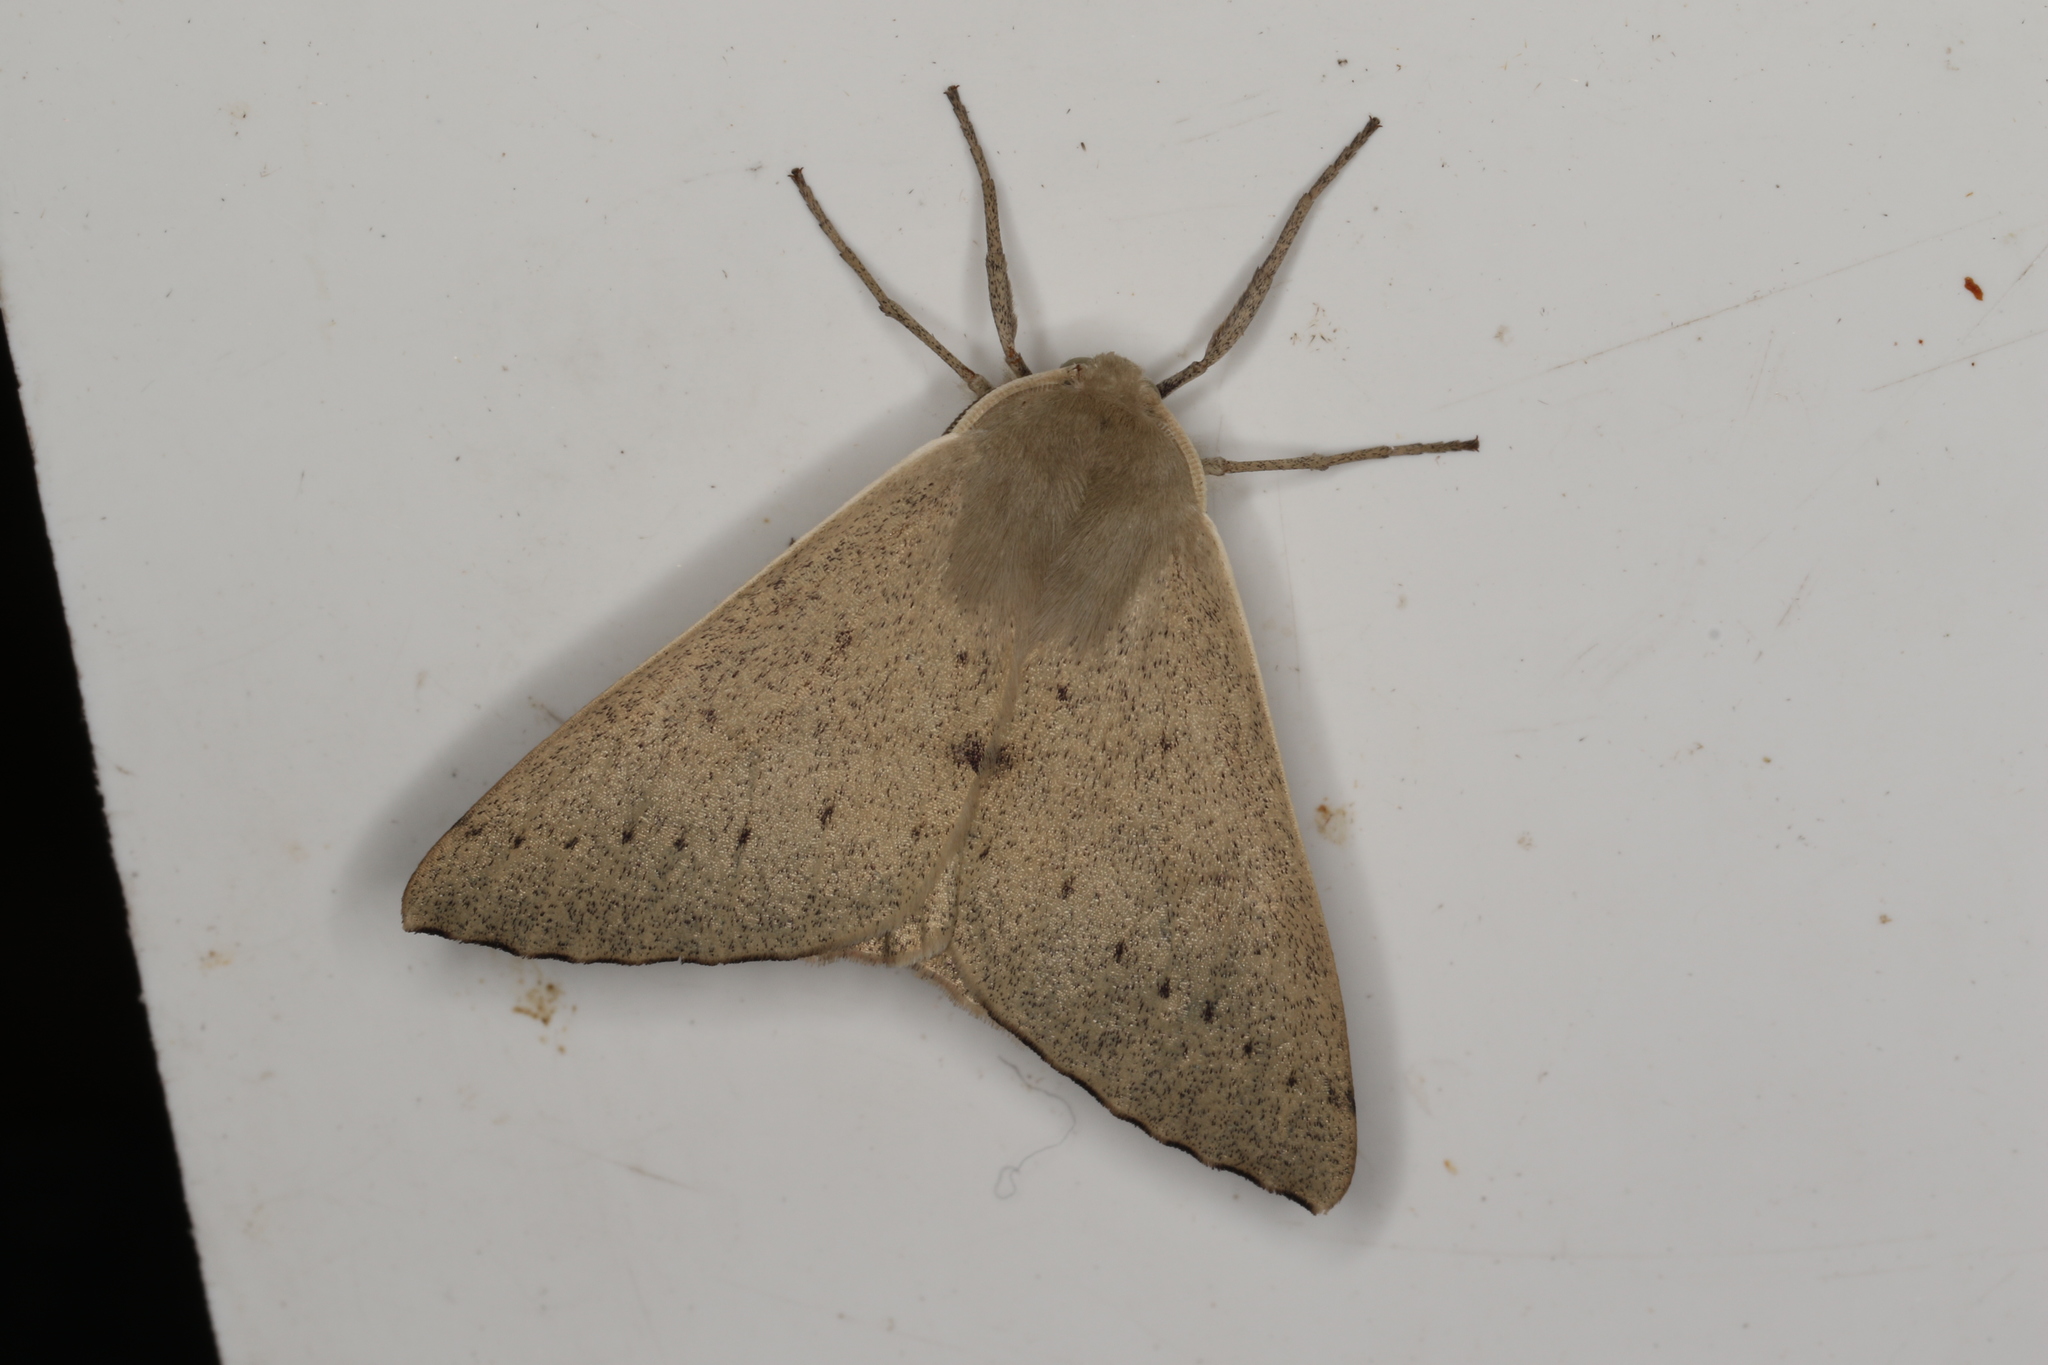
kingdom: Animalia
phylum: Arthropoda
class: Insecta
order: Lepidoptera
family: Geometridae
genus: Arhodia
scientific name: Arhodia lasiocamparia
